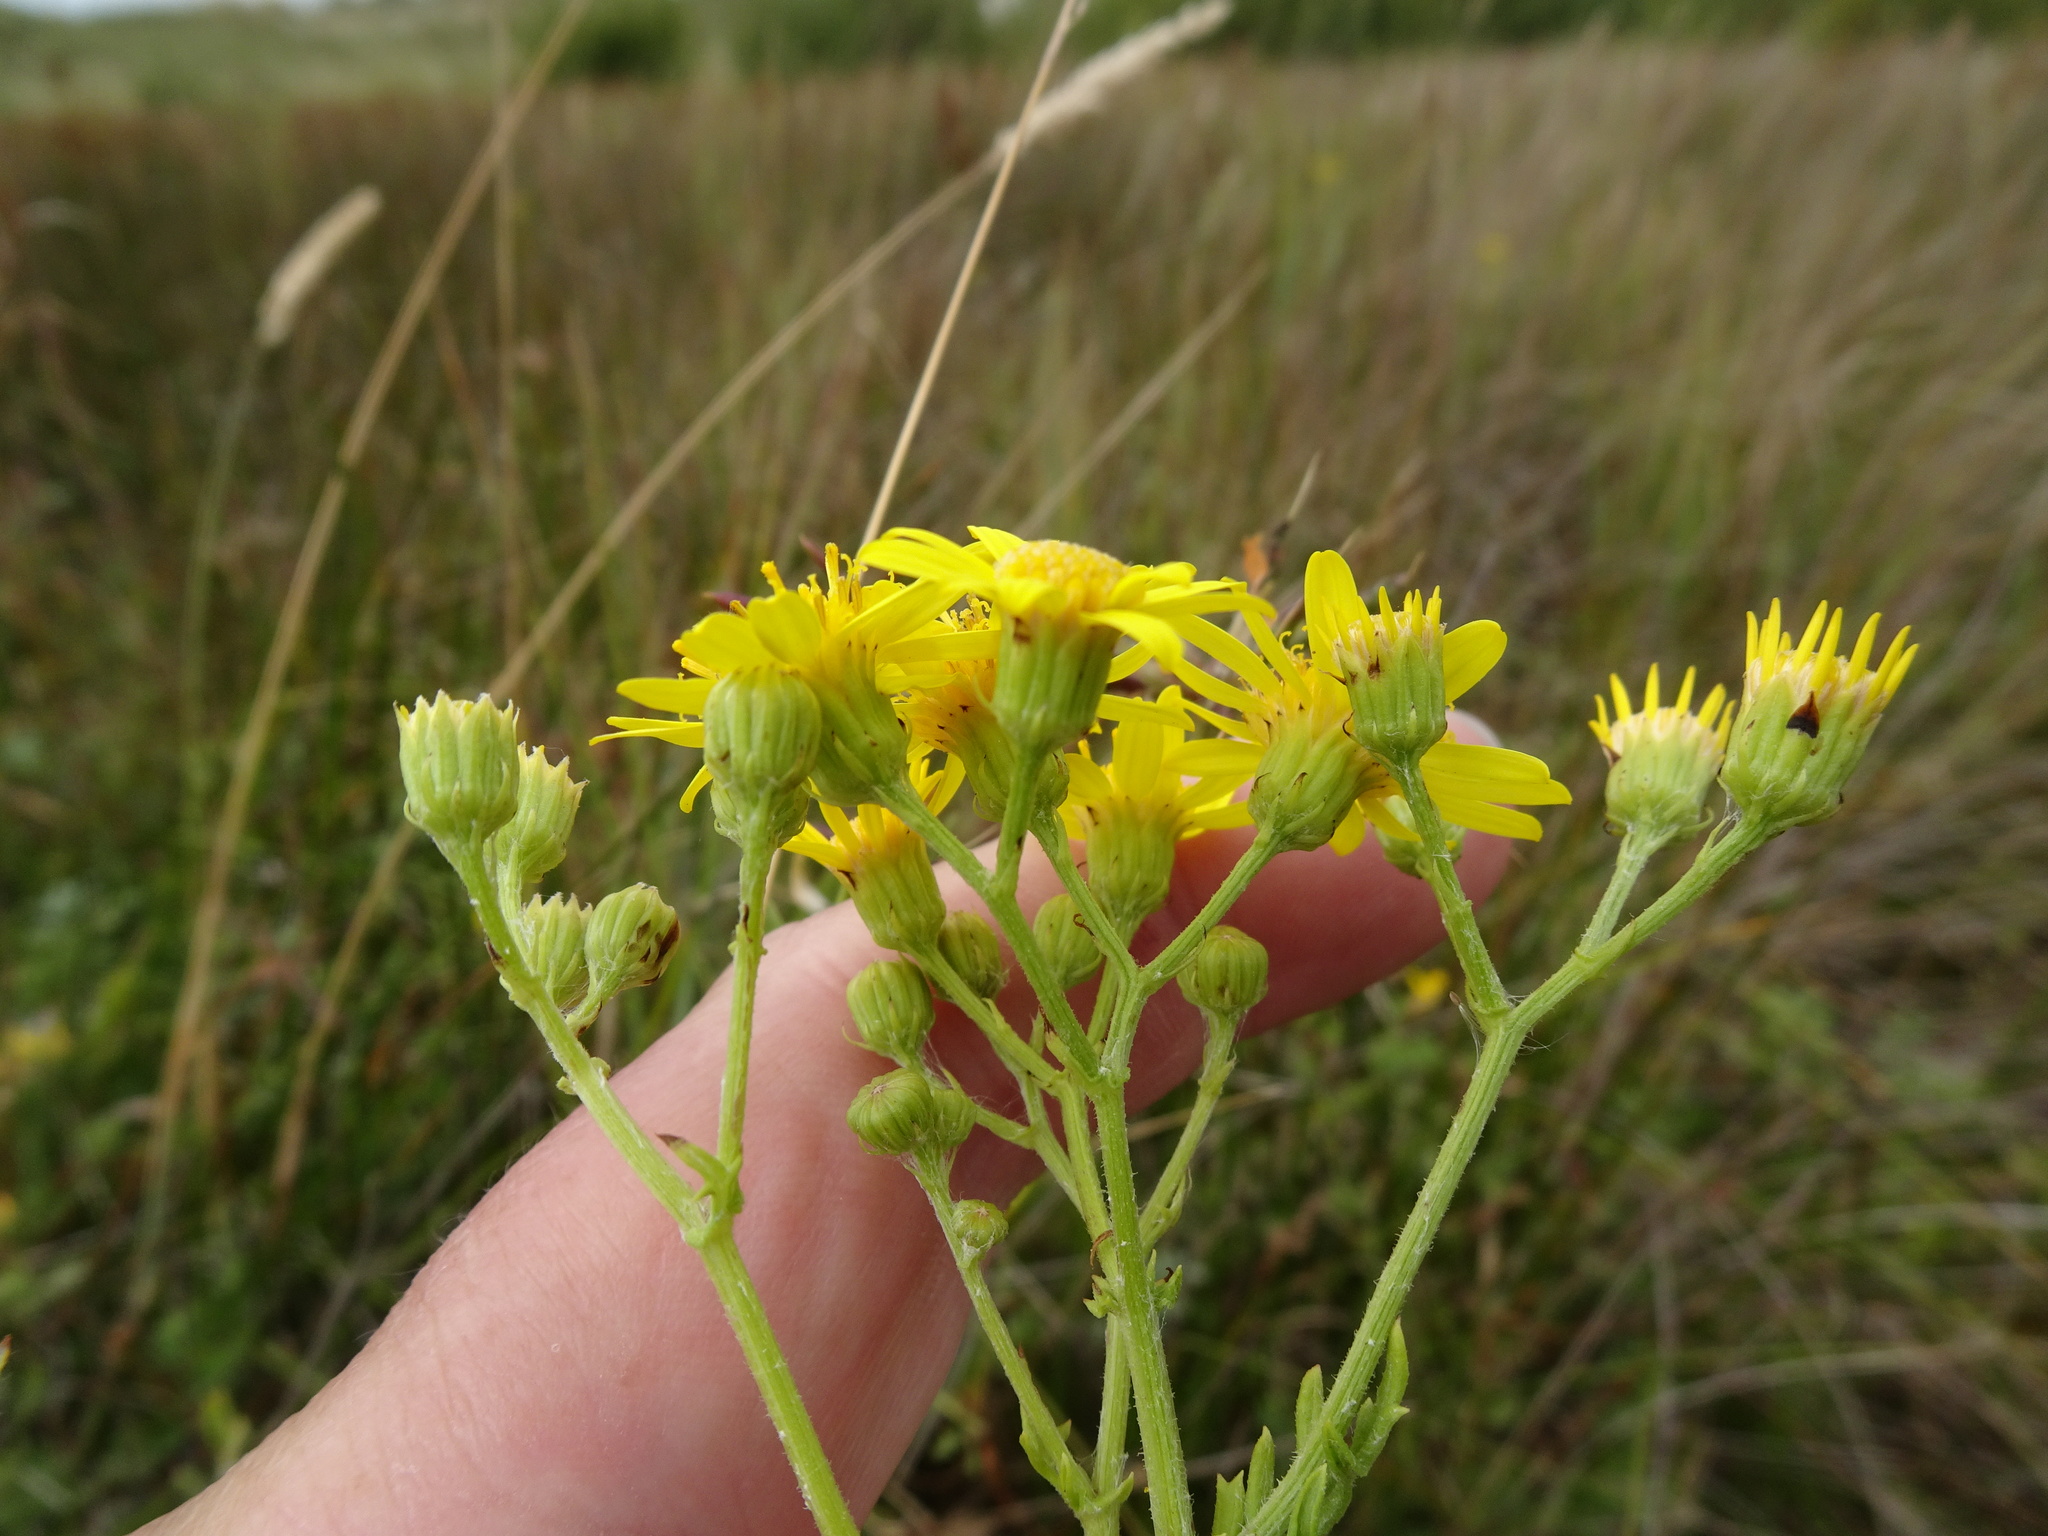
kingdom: Plantae
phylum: Tracheophyta
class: Magnoliopsida
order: Asterales
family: Asteraceae
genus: Jacobaea
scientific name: Jacobaea erucifolia
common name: Hoary ragwort
